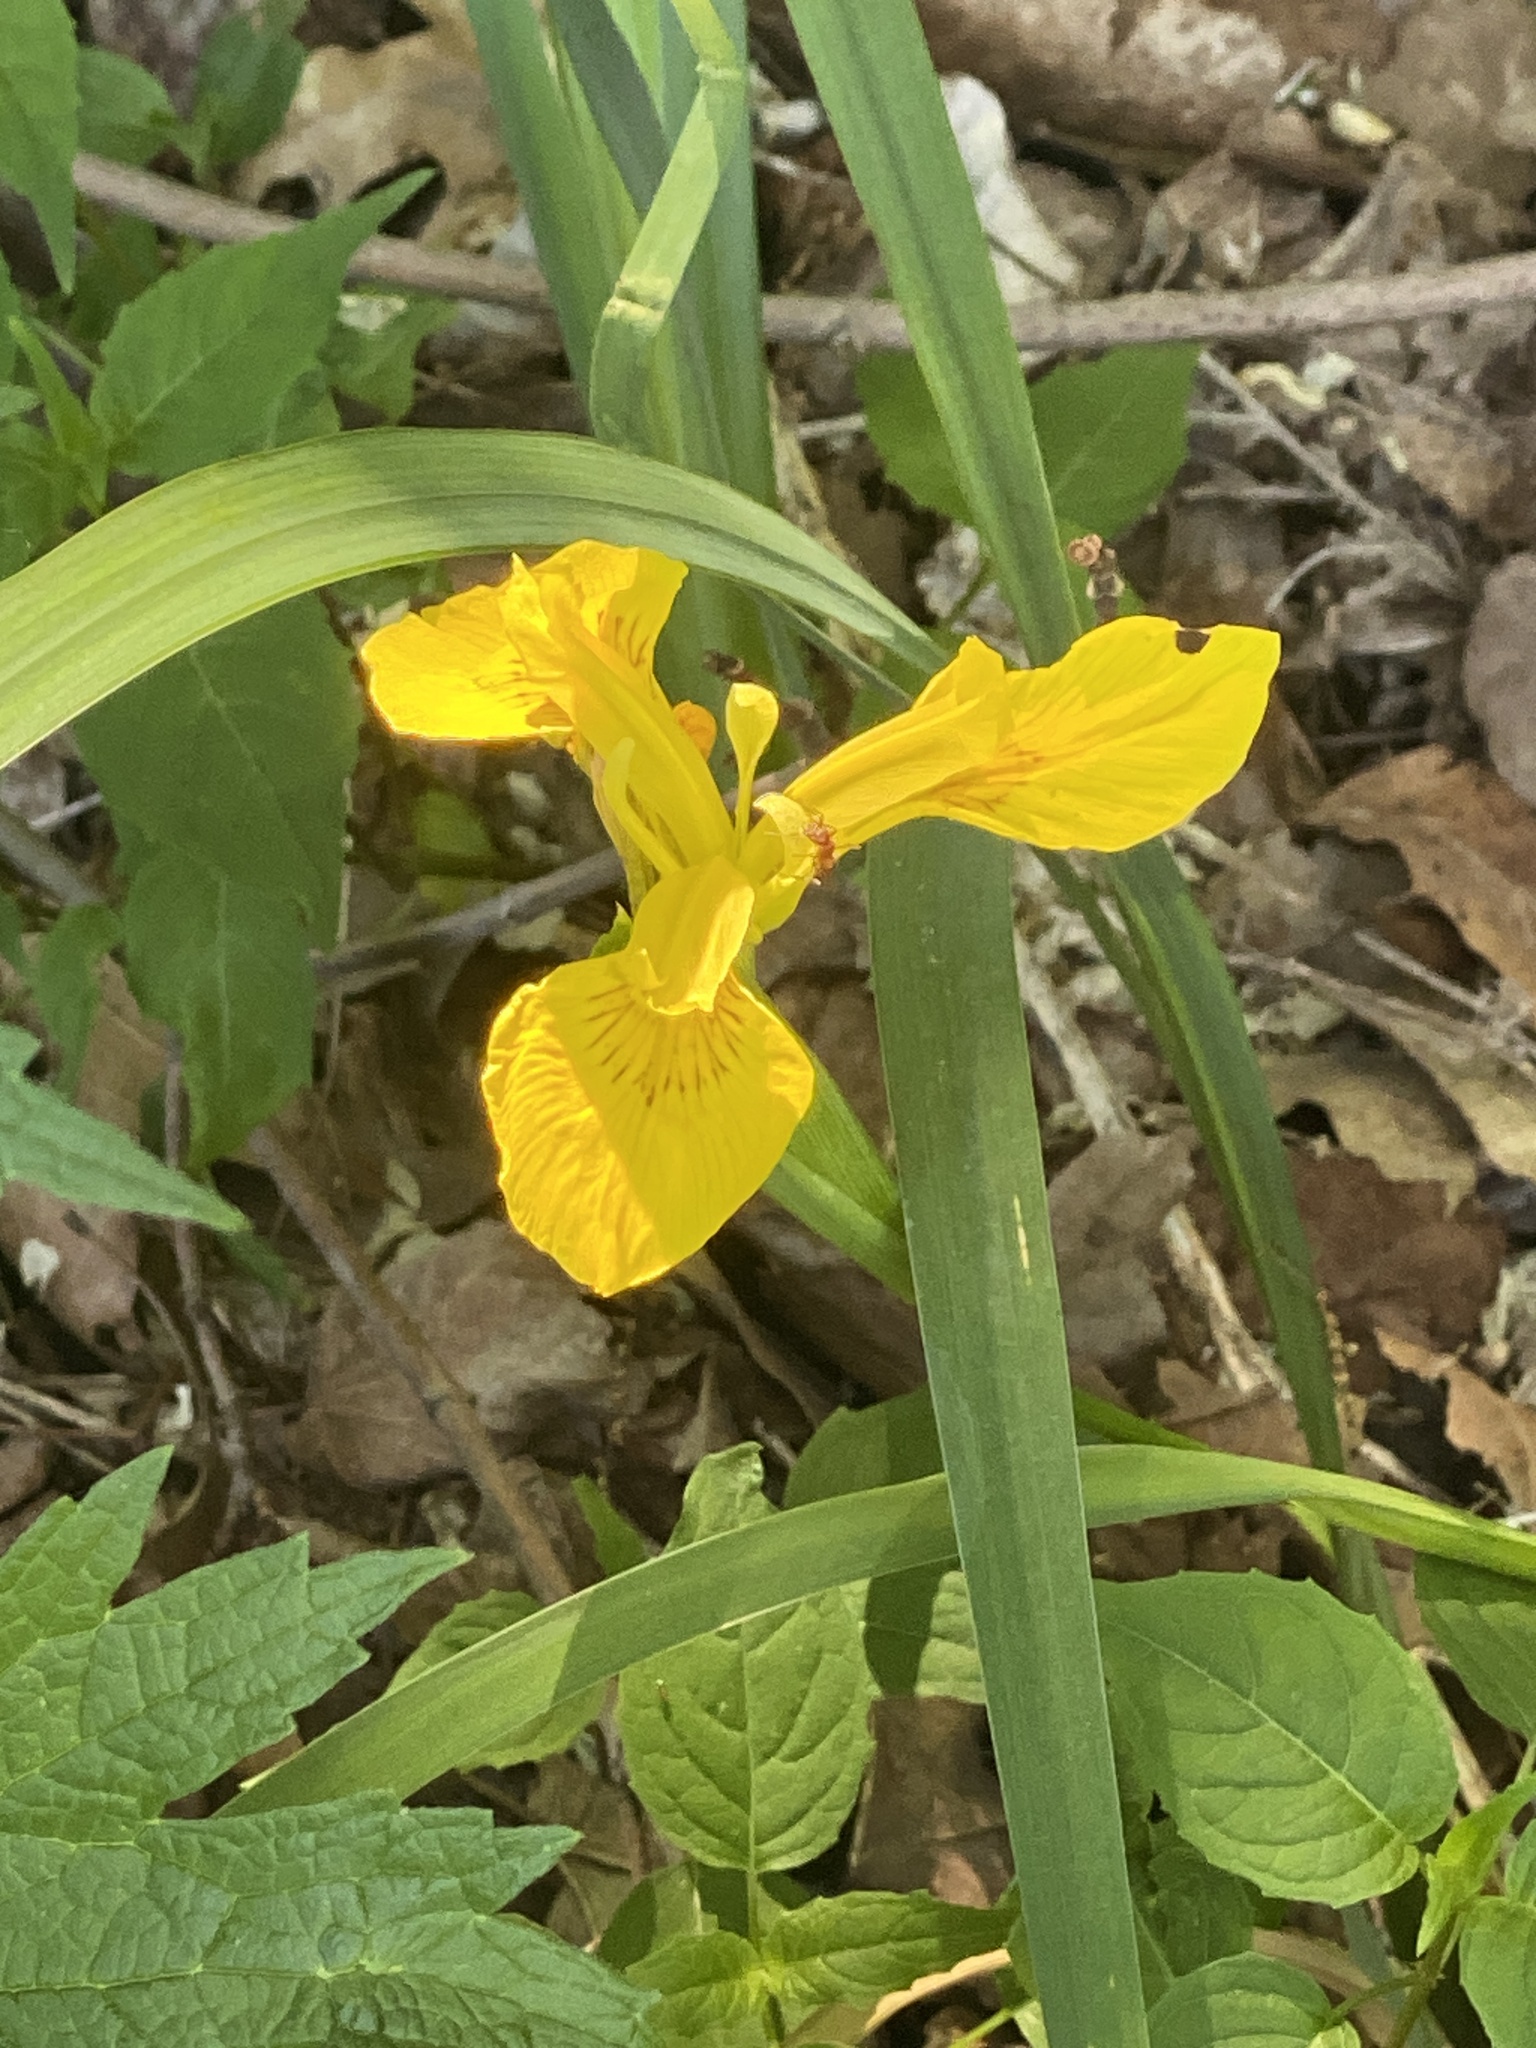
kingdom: Plantae
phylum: Tracheophyta
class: Liliopsida
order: Asparagales
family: Iridaceae
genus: Iris
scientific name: Iris pseudacorus
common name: Yellow flag
